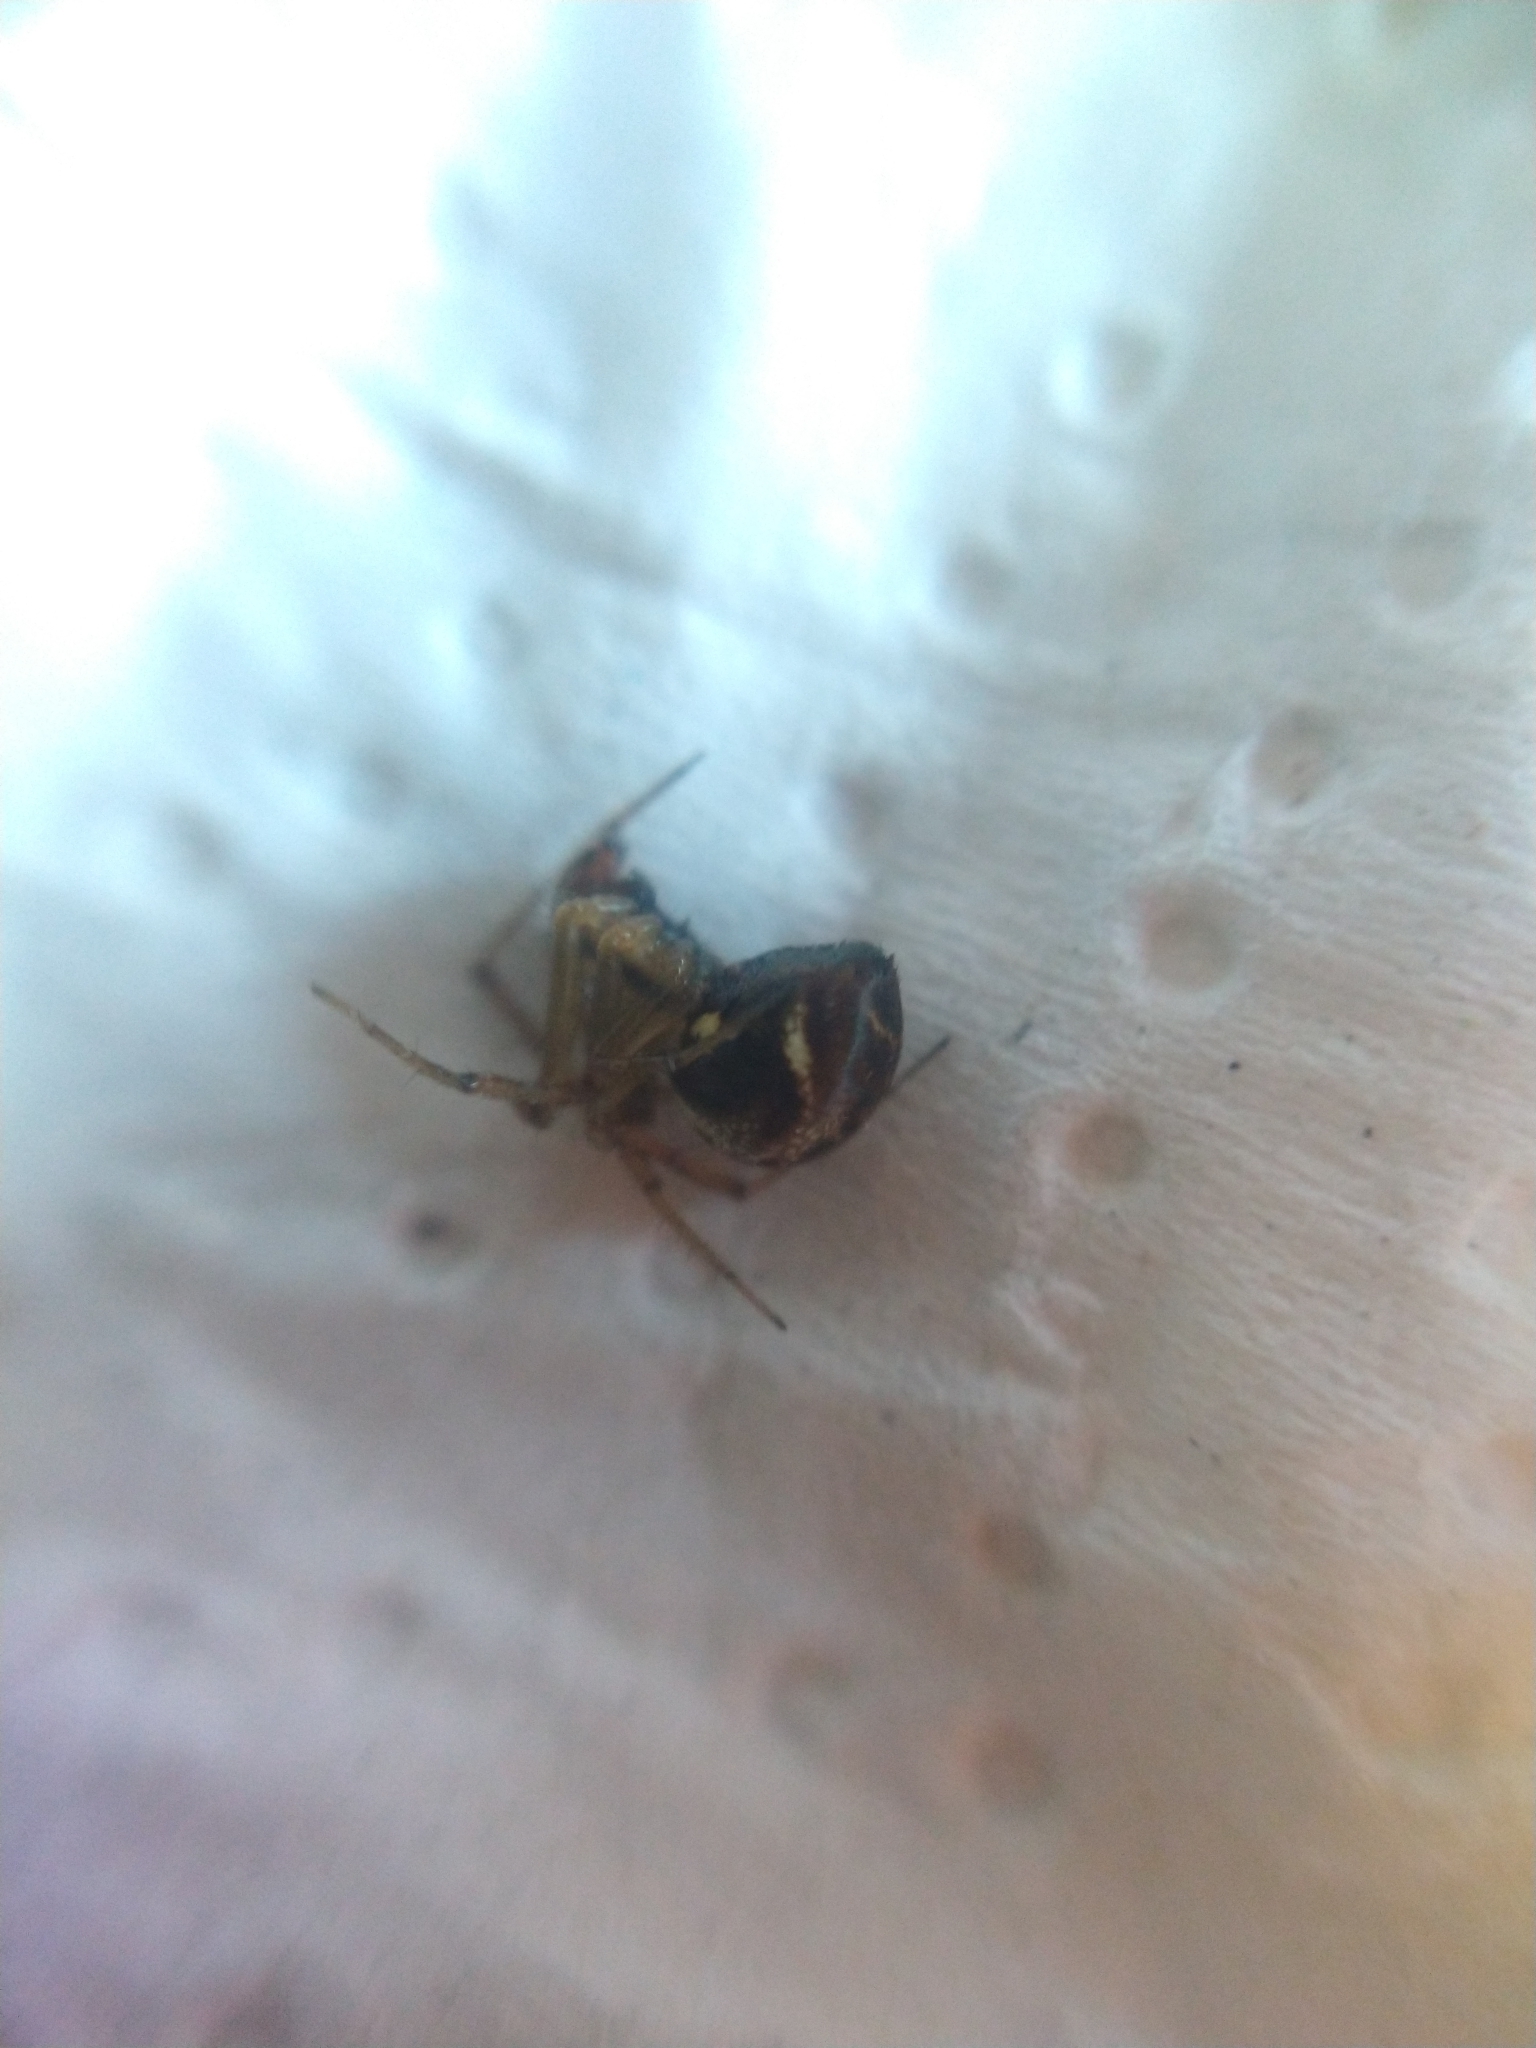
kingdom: Animalia
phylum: Arthropoda
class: Arachnida
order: Araneae
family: Linyphiidae
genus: Linyphia
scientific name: Linyphia triangularis
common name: Money spider
